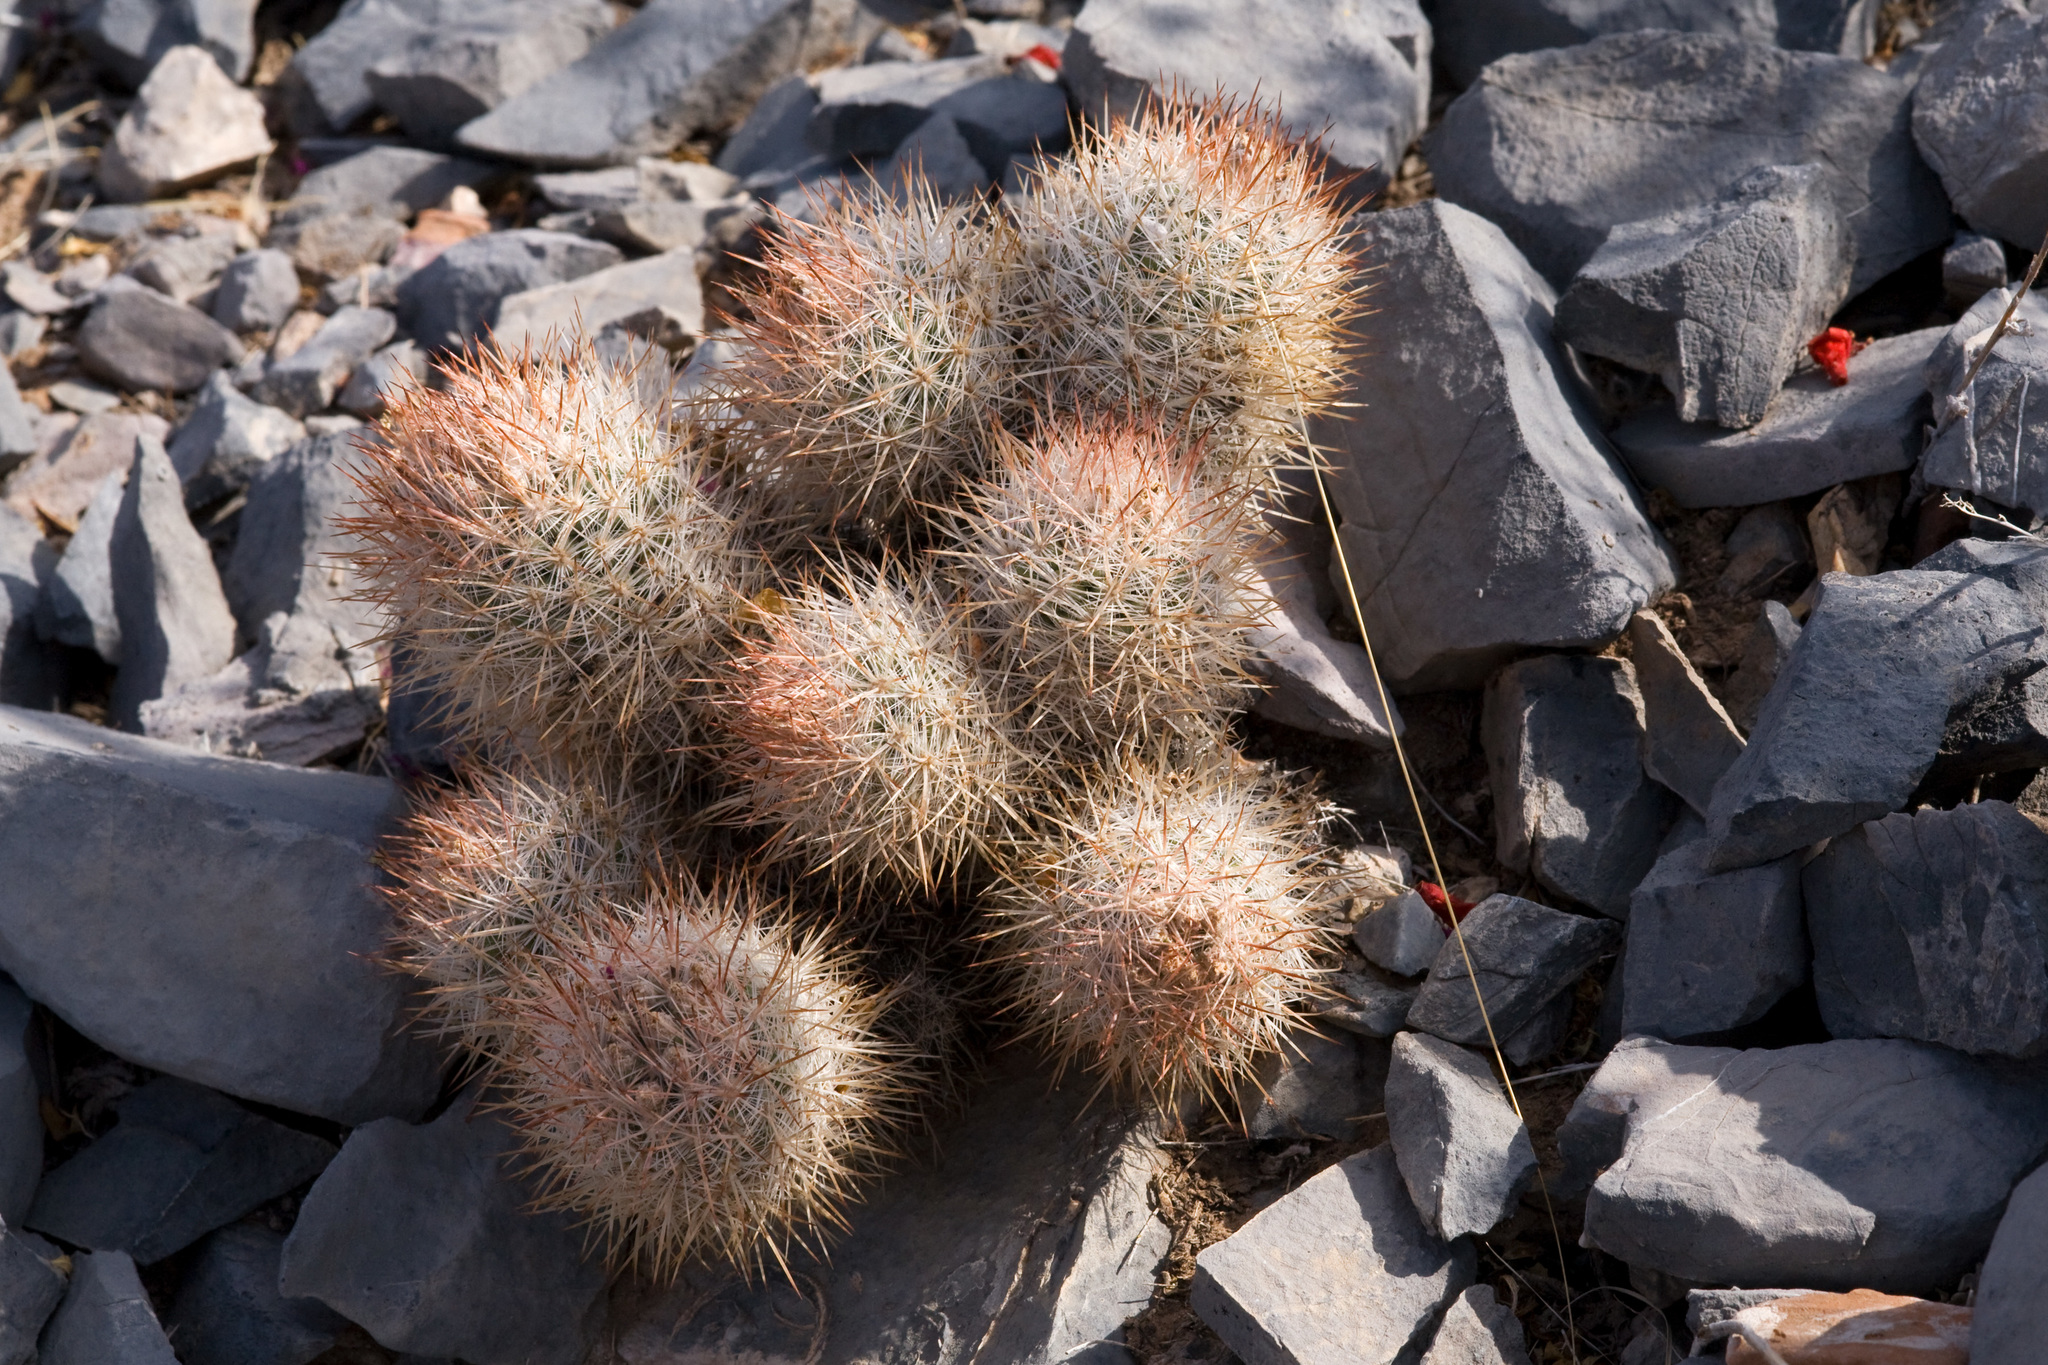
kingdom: Plantae
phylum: Tracheophyta
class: Magnoliopsida
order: Caryophyllales
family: Cactaceae
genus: Pelecyphora
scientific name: Pelecyphora sneedii
